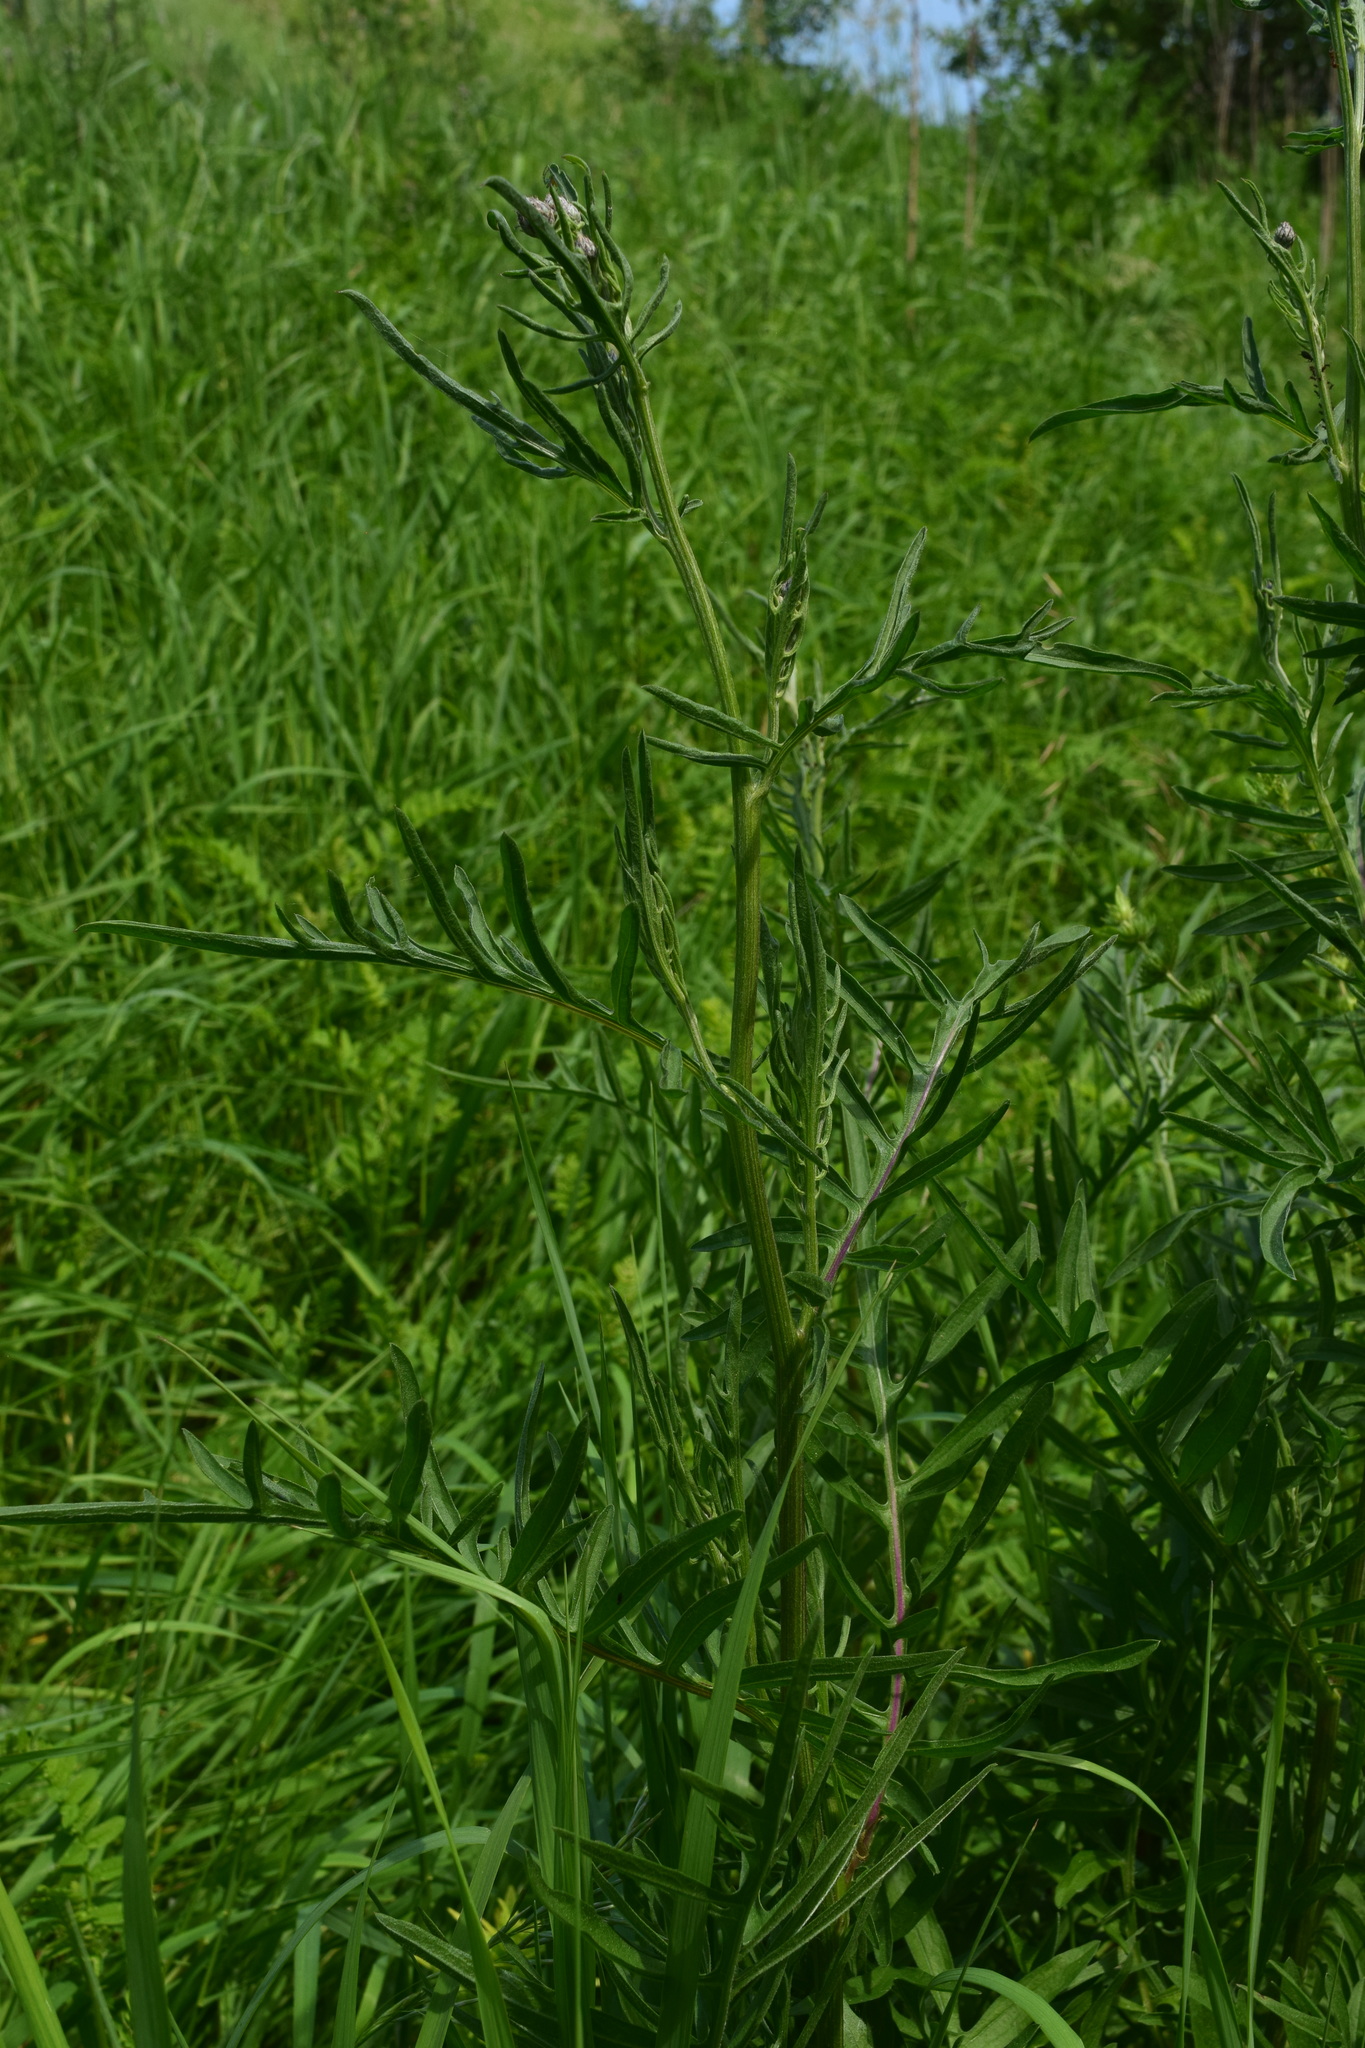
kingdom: Plantae
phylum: Tracheophyta
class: Magnoliopsida
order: Asterales
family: Asteraceae
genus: Centaurea
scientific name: Centaurea scabiosa
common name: Greater knapweed
